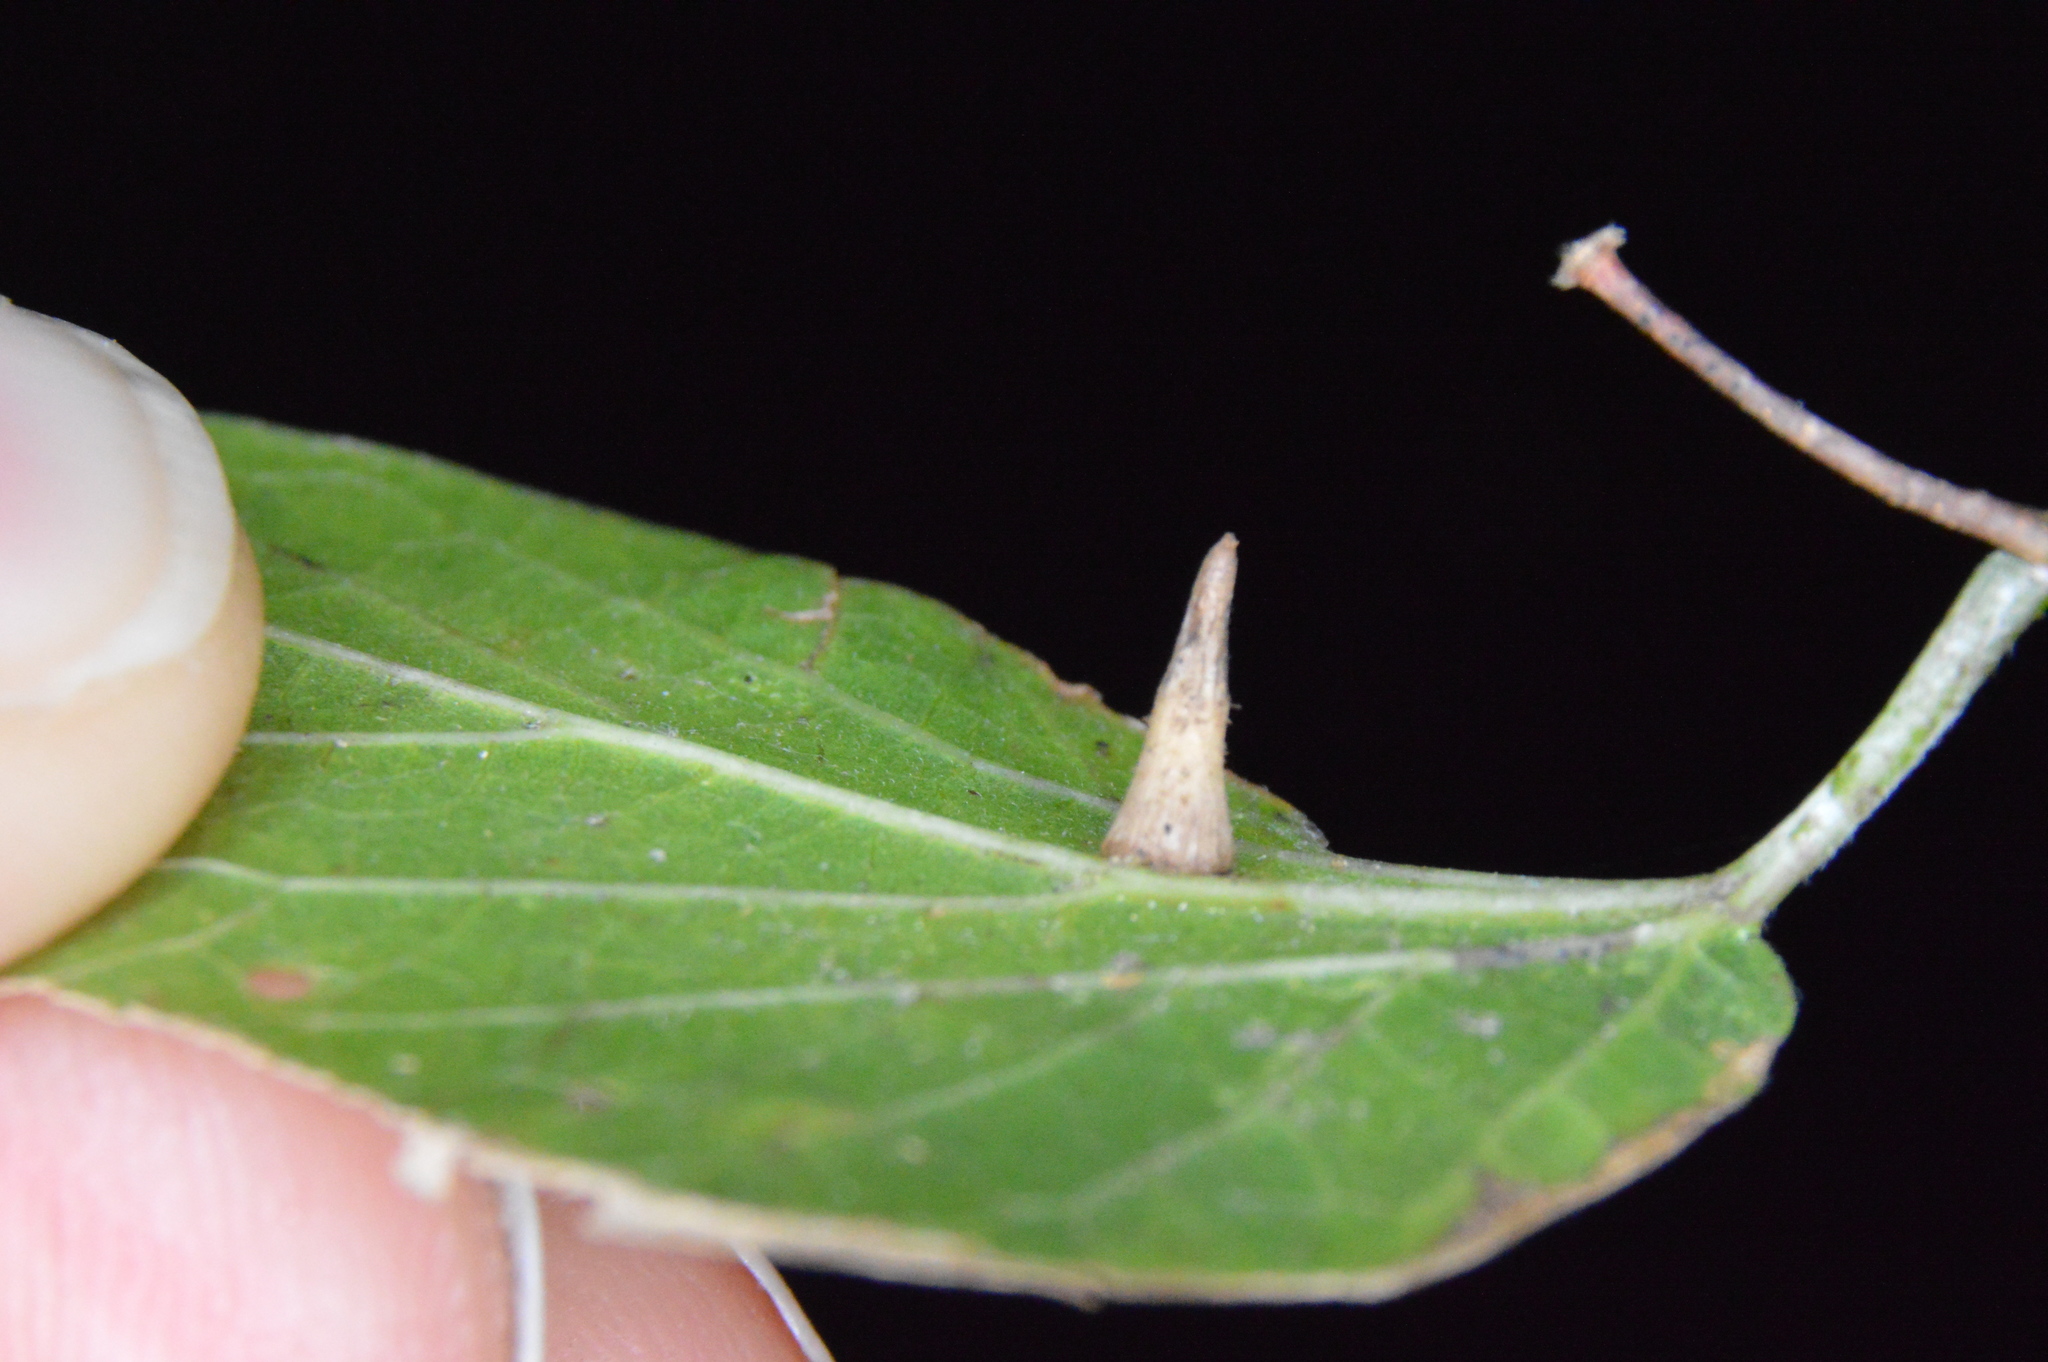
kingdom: Animalia
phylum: Arthropoda
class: Insecta
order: Diptera
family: Cecidomyiidae
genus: Celticecis
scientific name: Celticecis subulata
